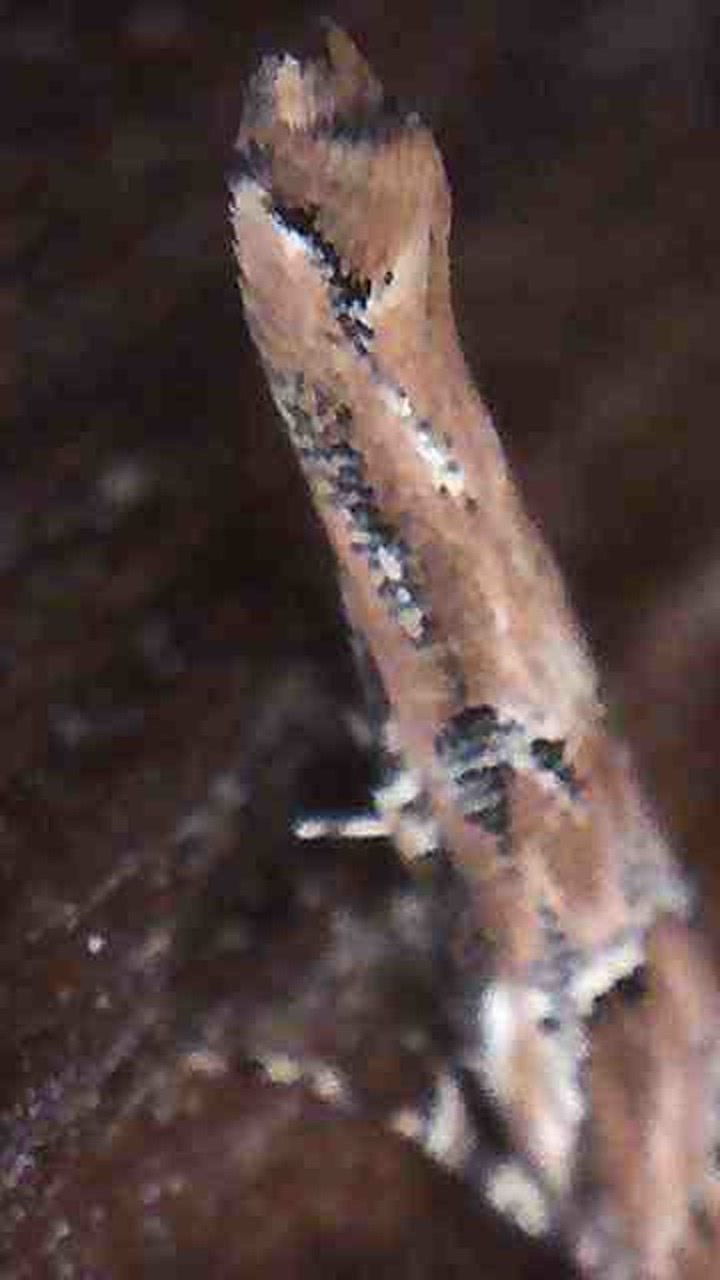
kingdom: Animalia
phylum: Arthropoda
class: Insecta
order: Lepidoptera
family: Cosmopterigidae
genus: Pyroderces
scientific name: Pyroderces aellotricha
